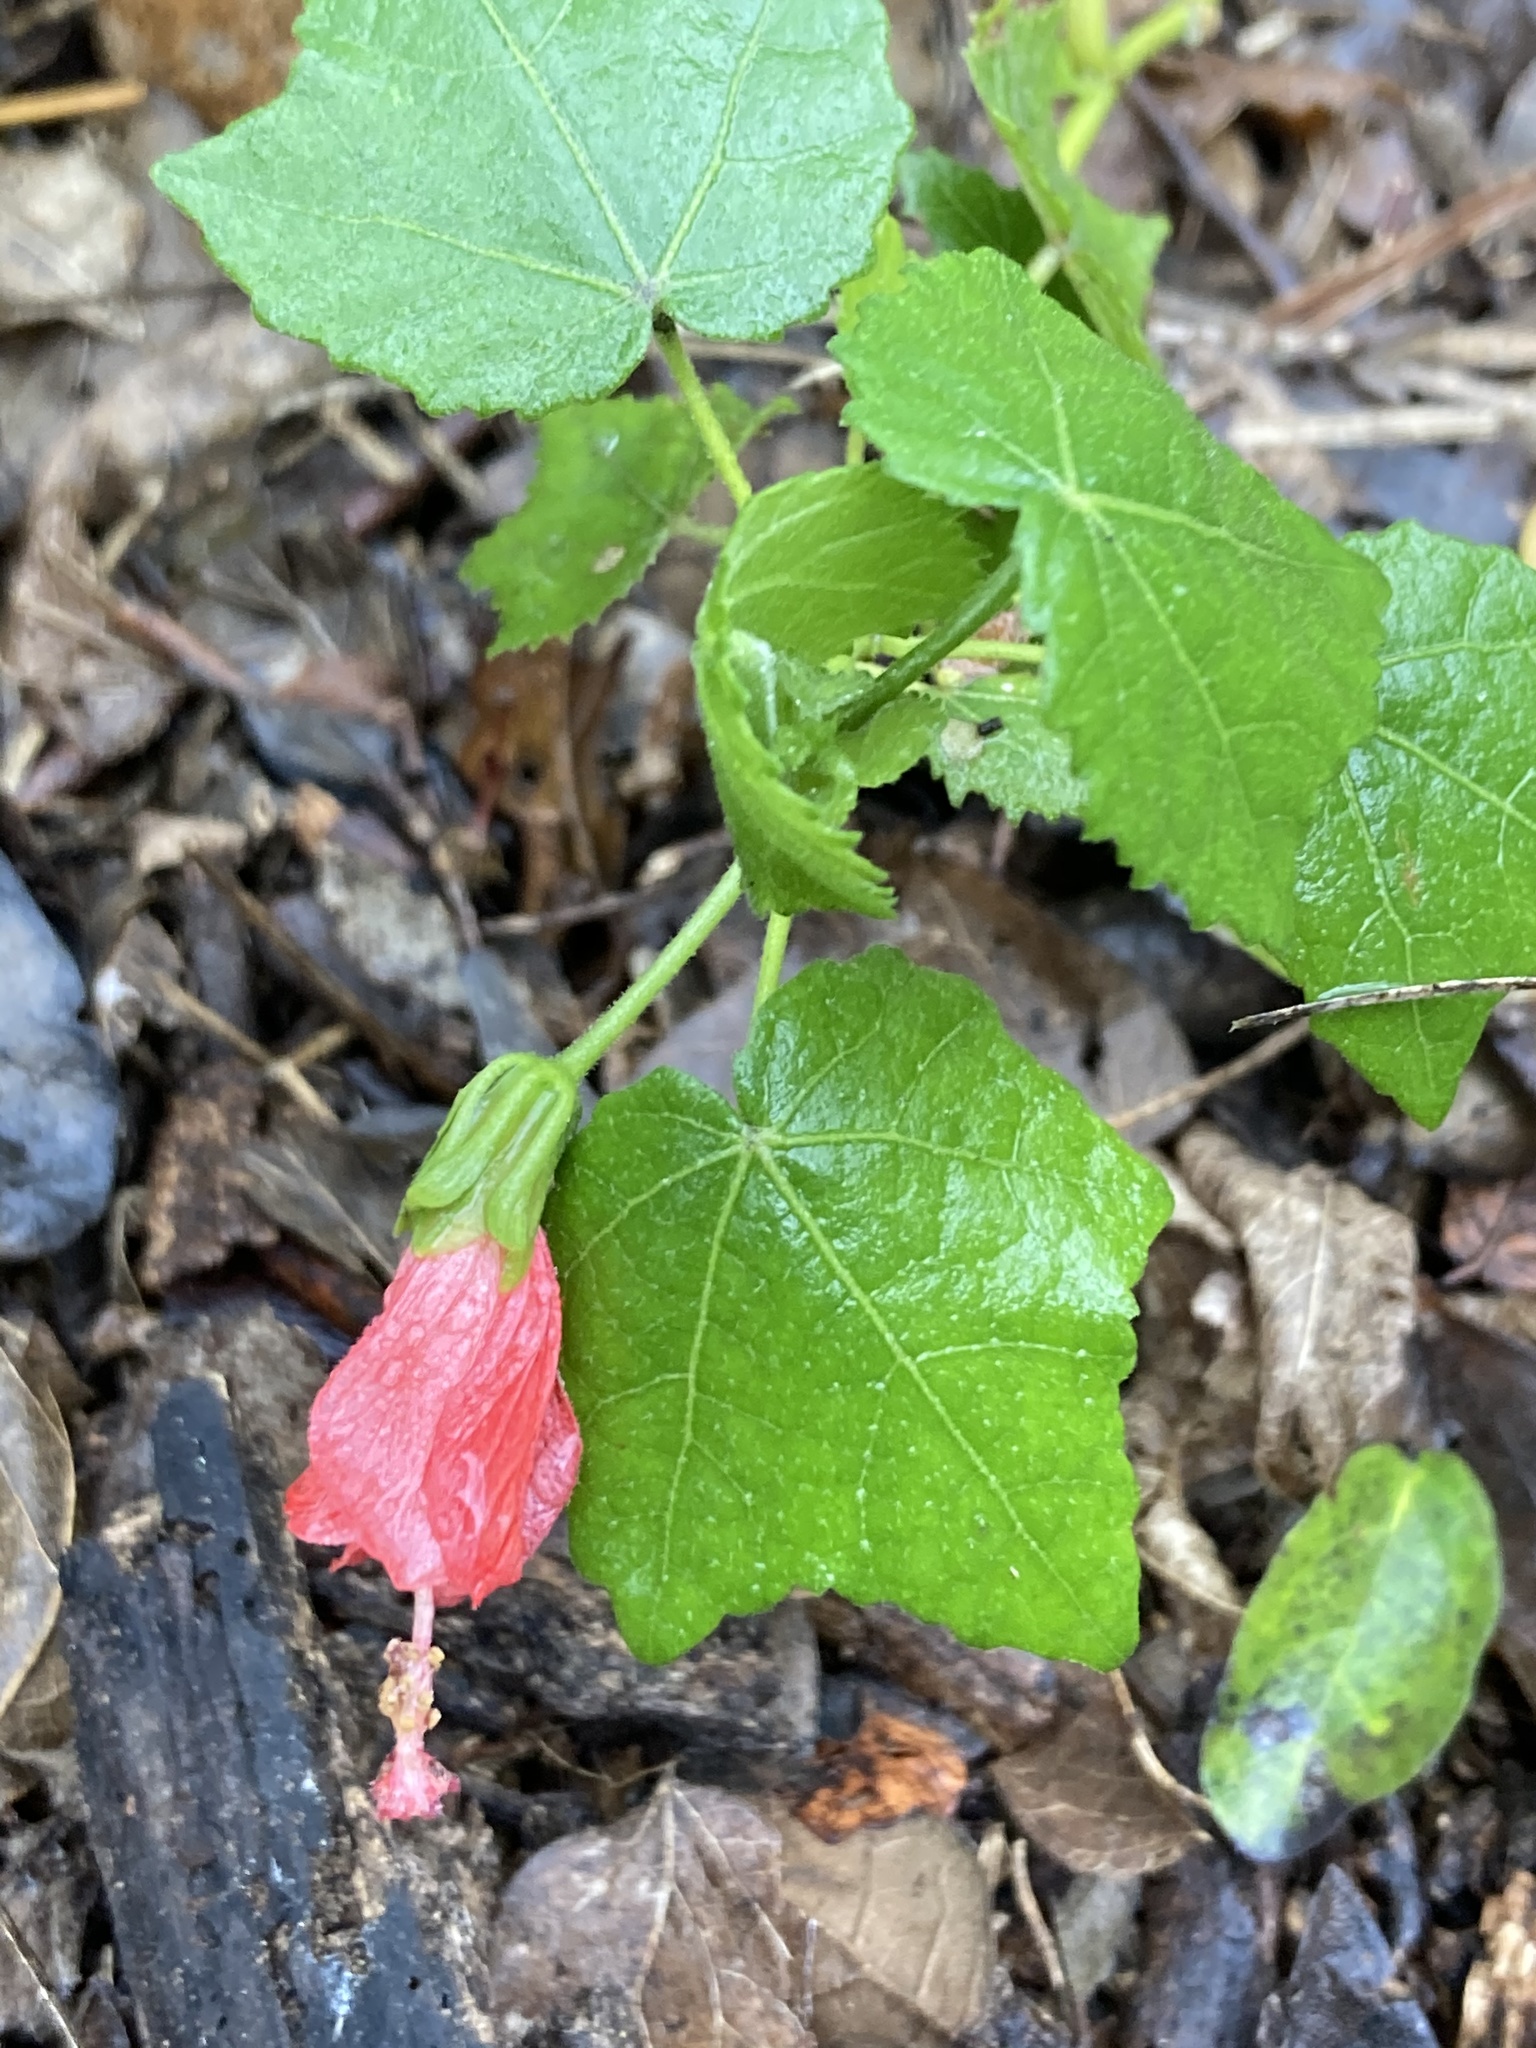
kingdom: Plantae
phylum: Tracheophyta
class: Magnoliopsida
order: Malvales
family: Malvaceae
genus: Malvaviscus
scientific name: Malvaviscus arboreus
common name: Wax mallow
